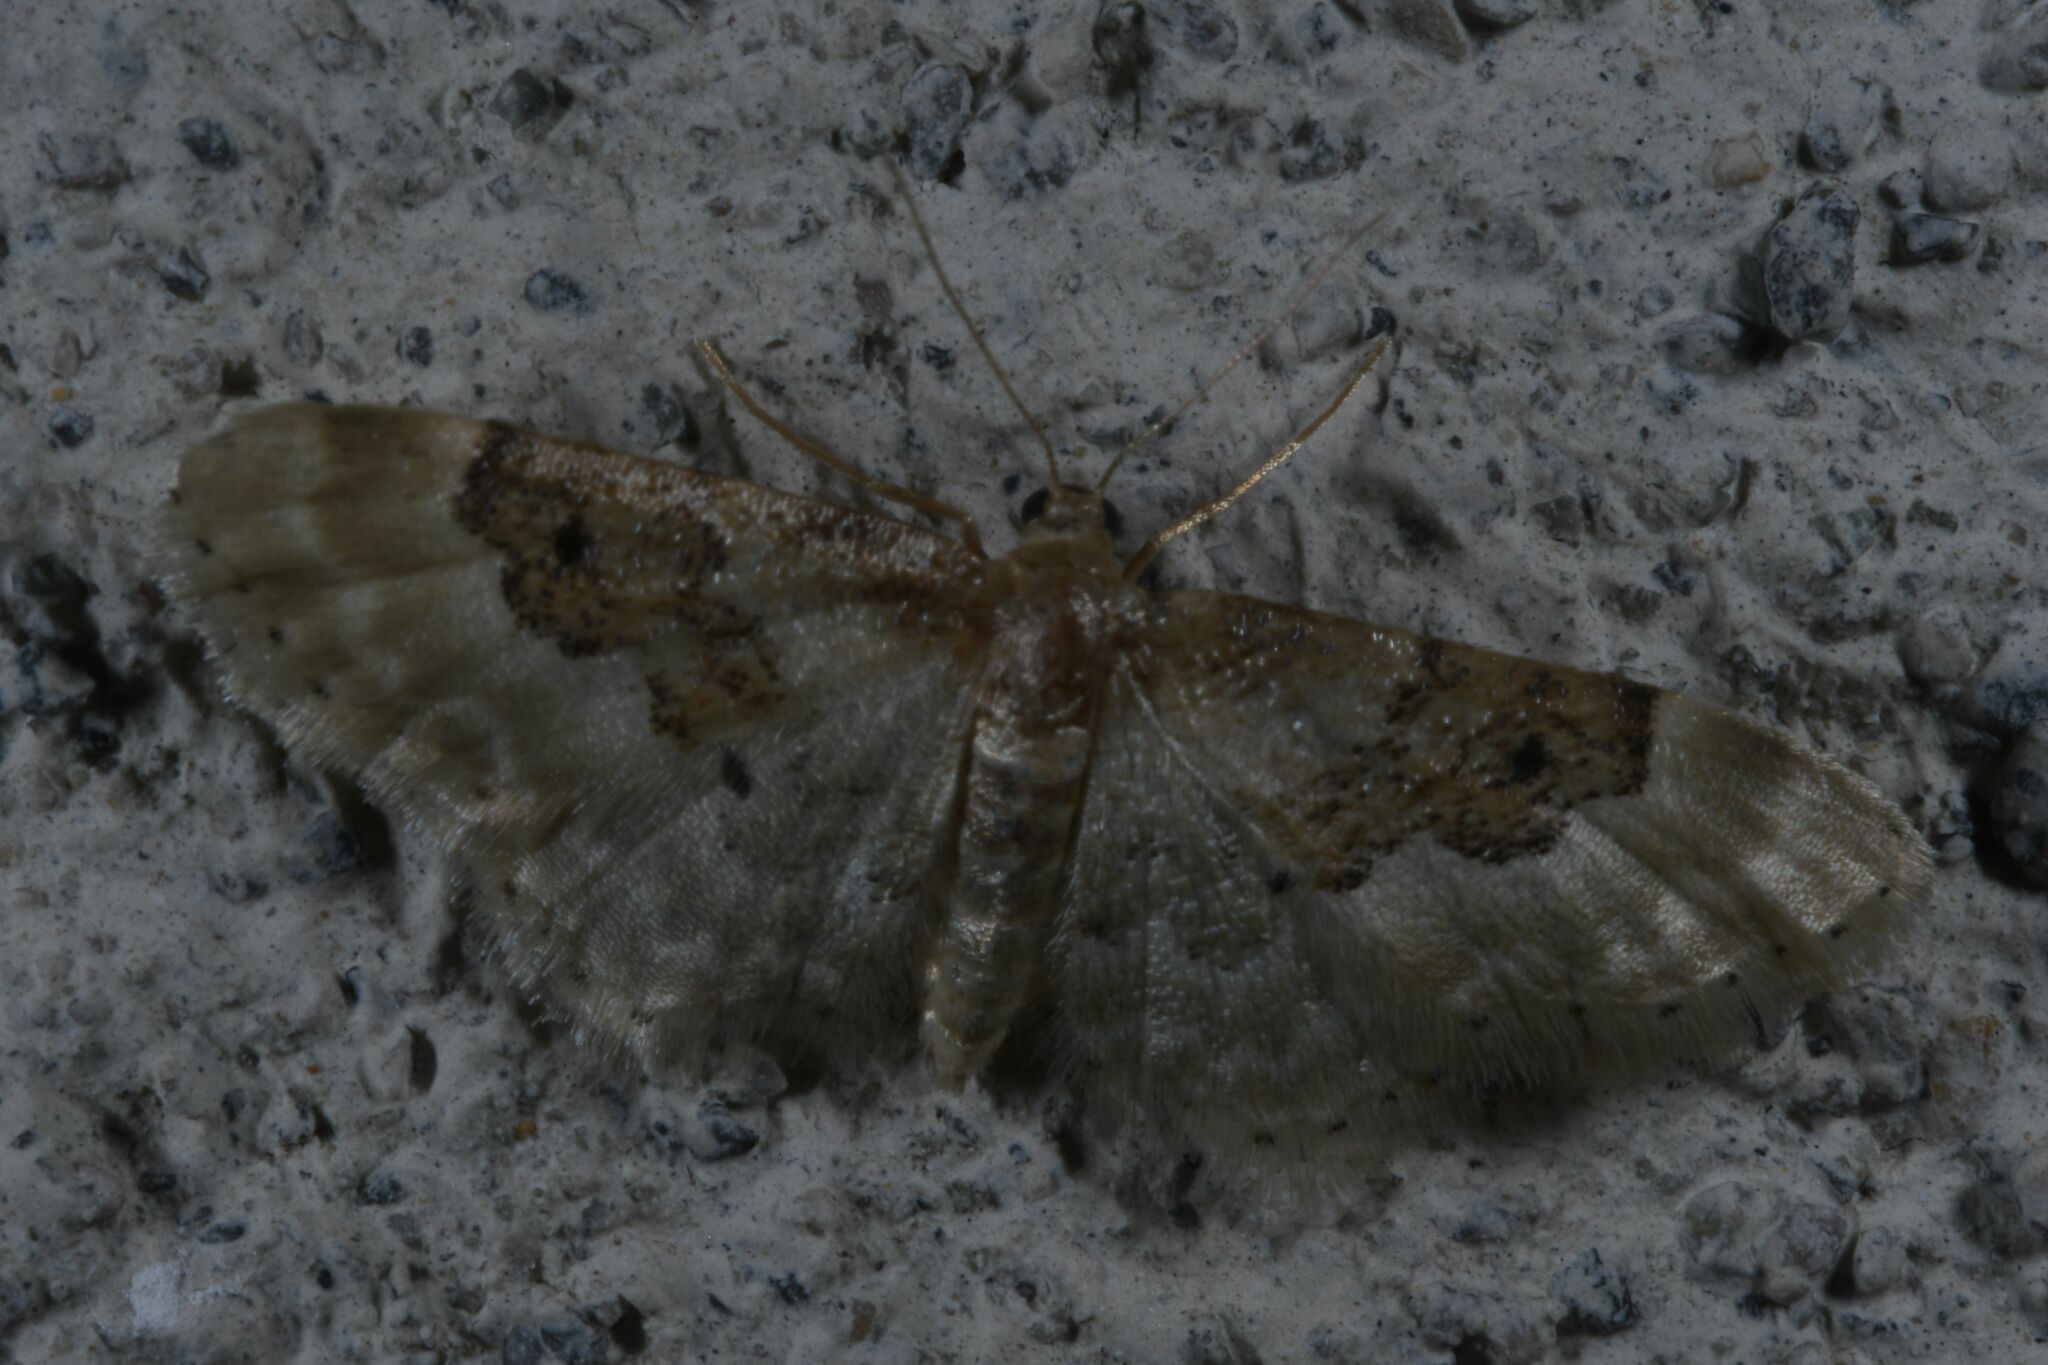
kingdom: Animalia
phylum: Arthropoda
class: Insecta
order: Lepidoptera
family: Geometridae
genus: Idaea
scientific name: Idaea rusticata
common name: Least carpet
